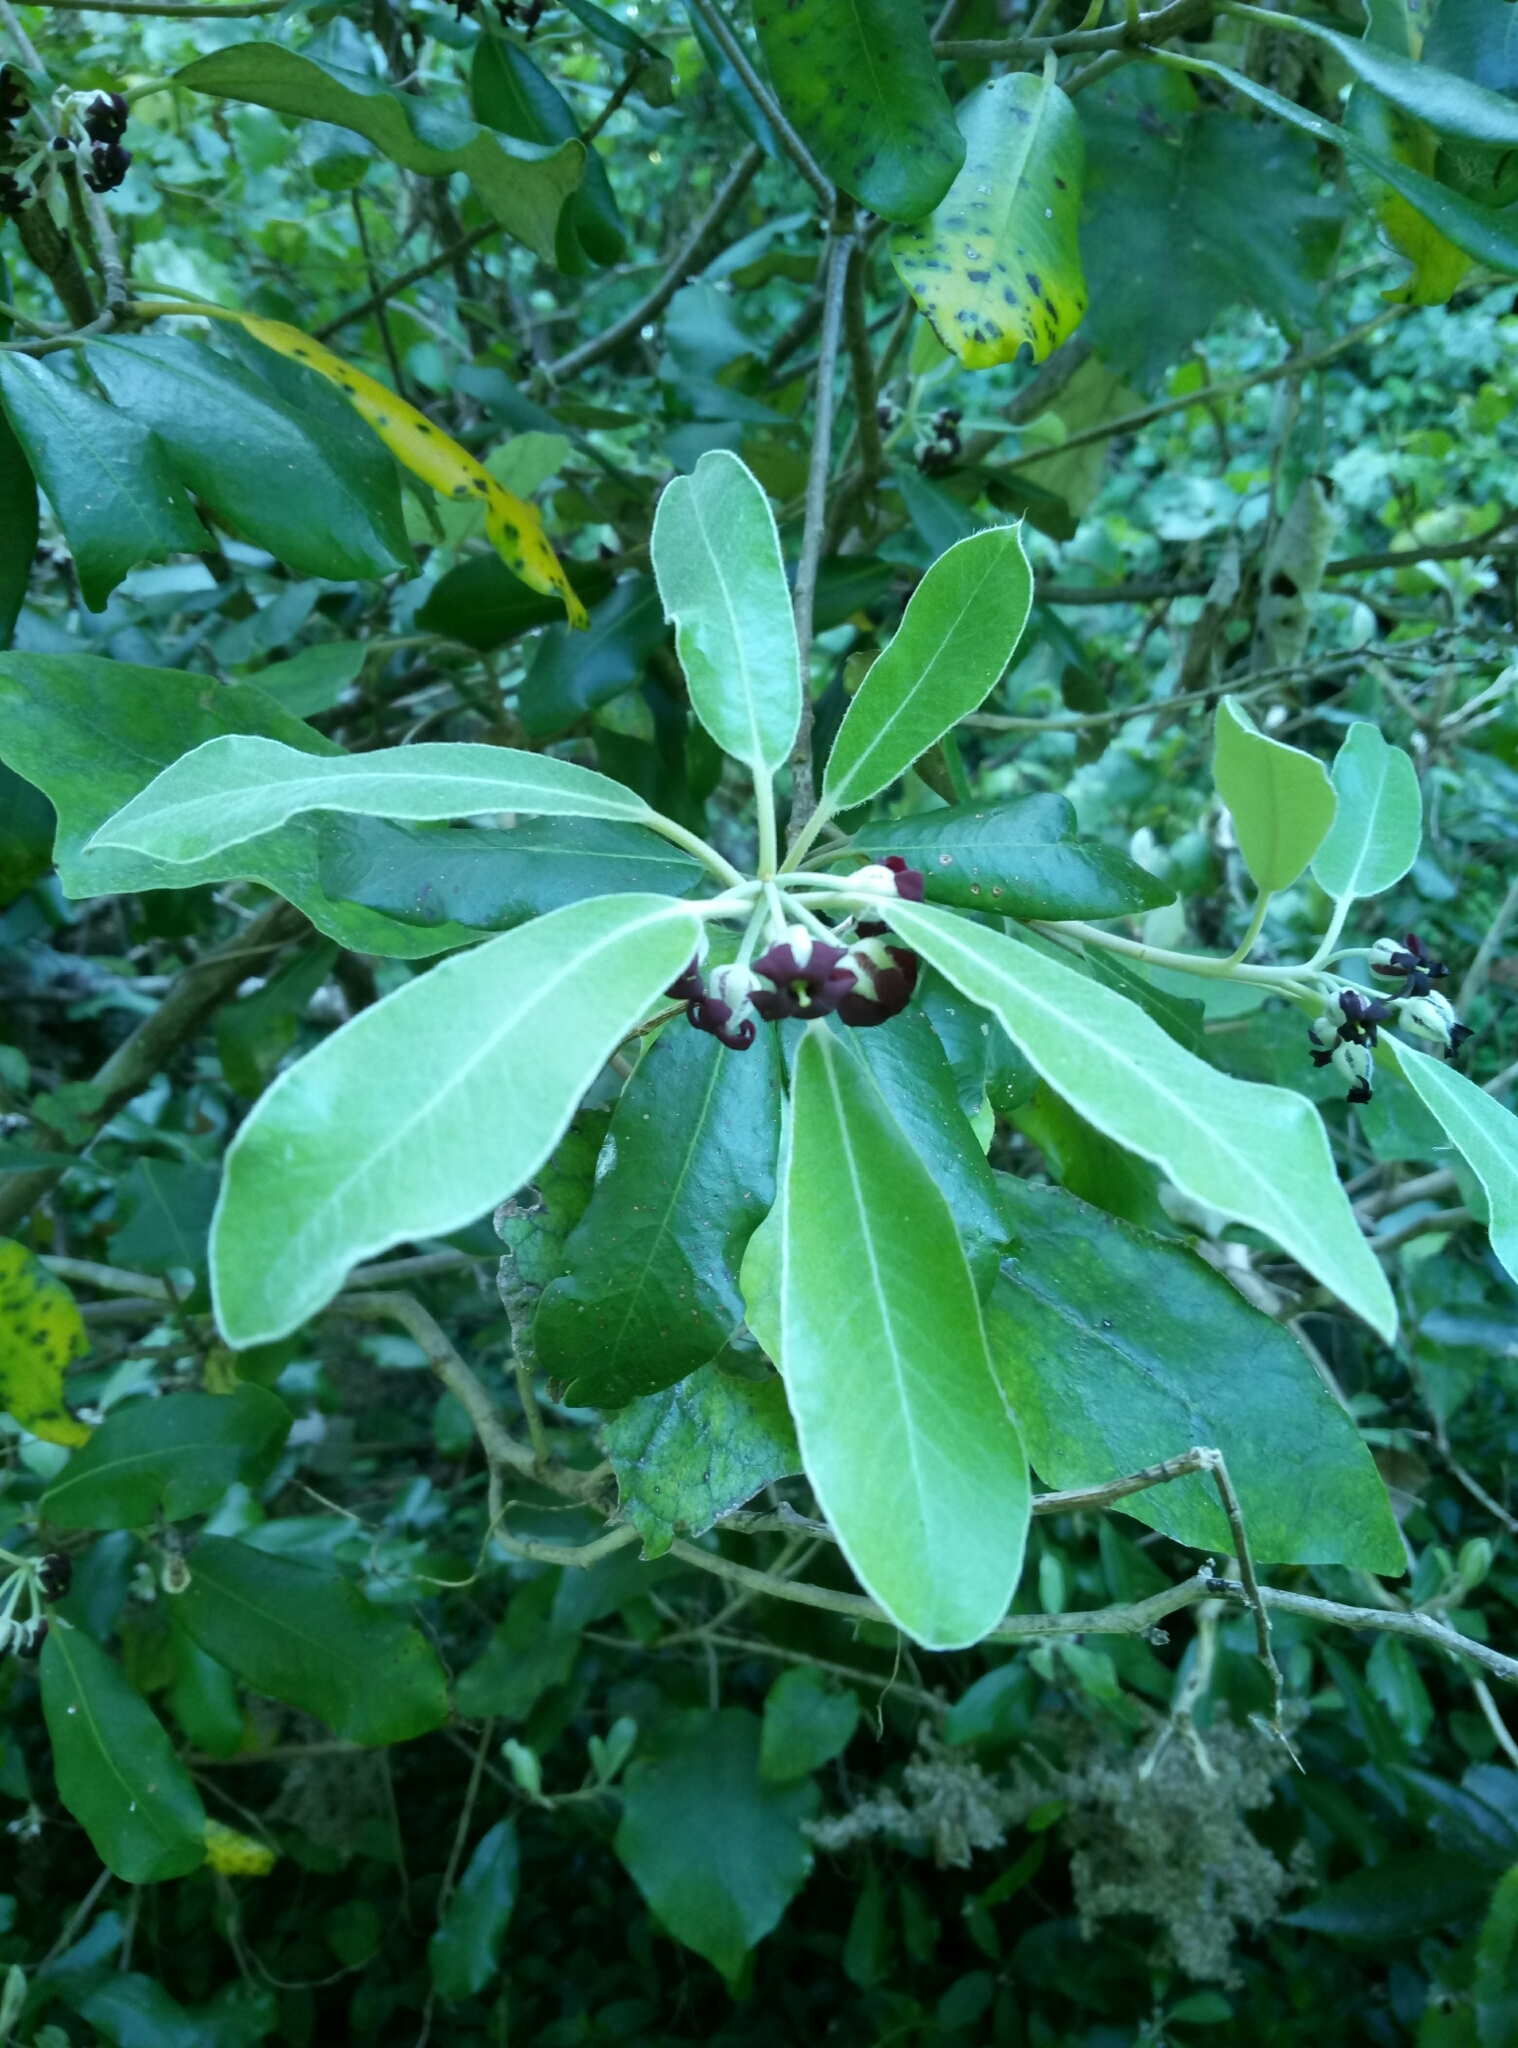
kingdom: Plantae
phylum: Tracheophyta
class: Magnoliopsida
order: Apiales
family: Pittosporaceae
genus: Pittosporum
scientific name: Pittosporum crassifolium
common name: Karo
